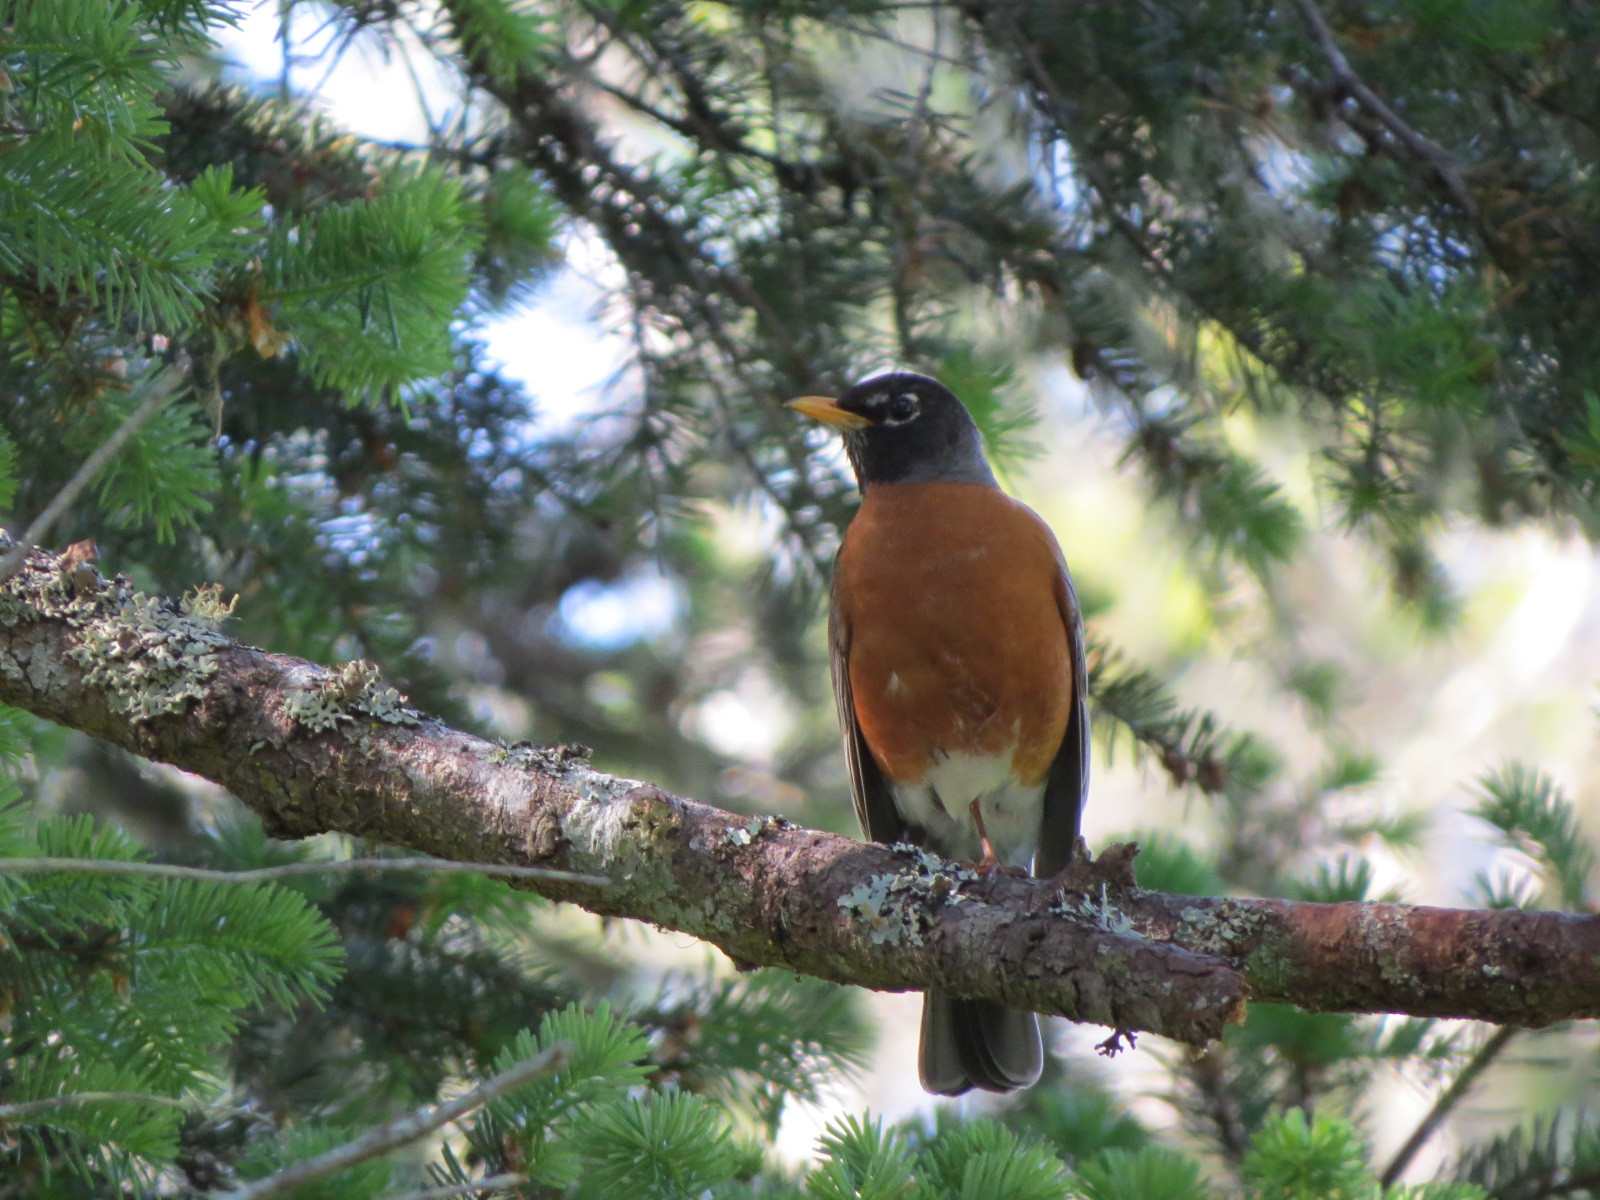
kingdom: Animalia
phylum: Chordata
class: Aves
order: Passeriformes
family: Turdidae
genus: Turdus
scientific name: Turdus migratorius
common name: American robin
